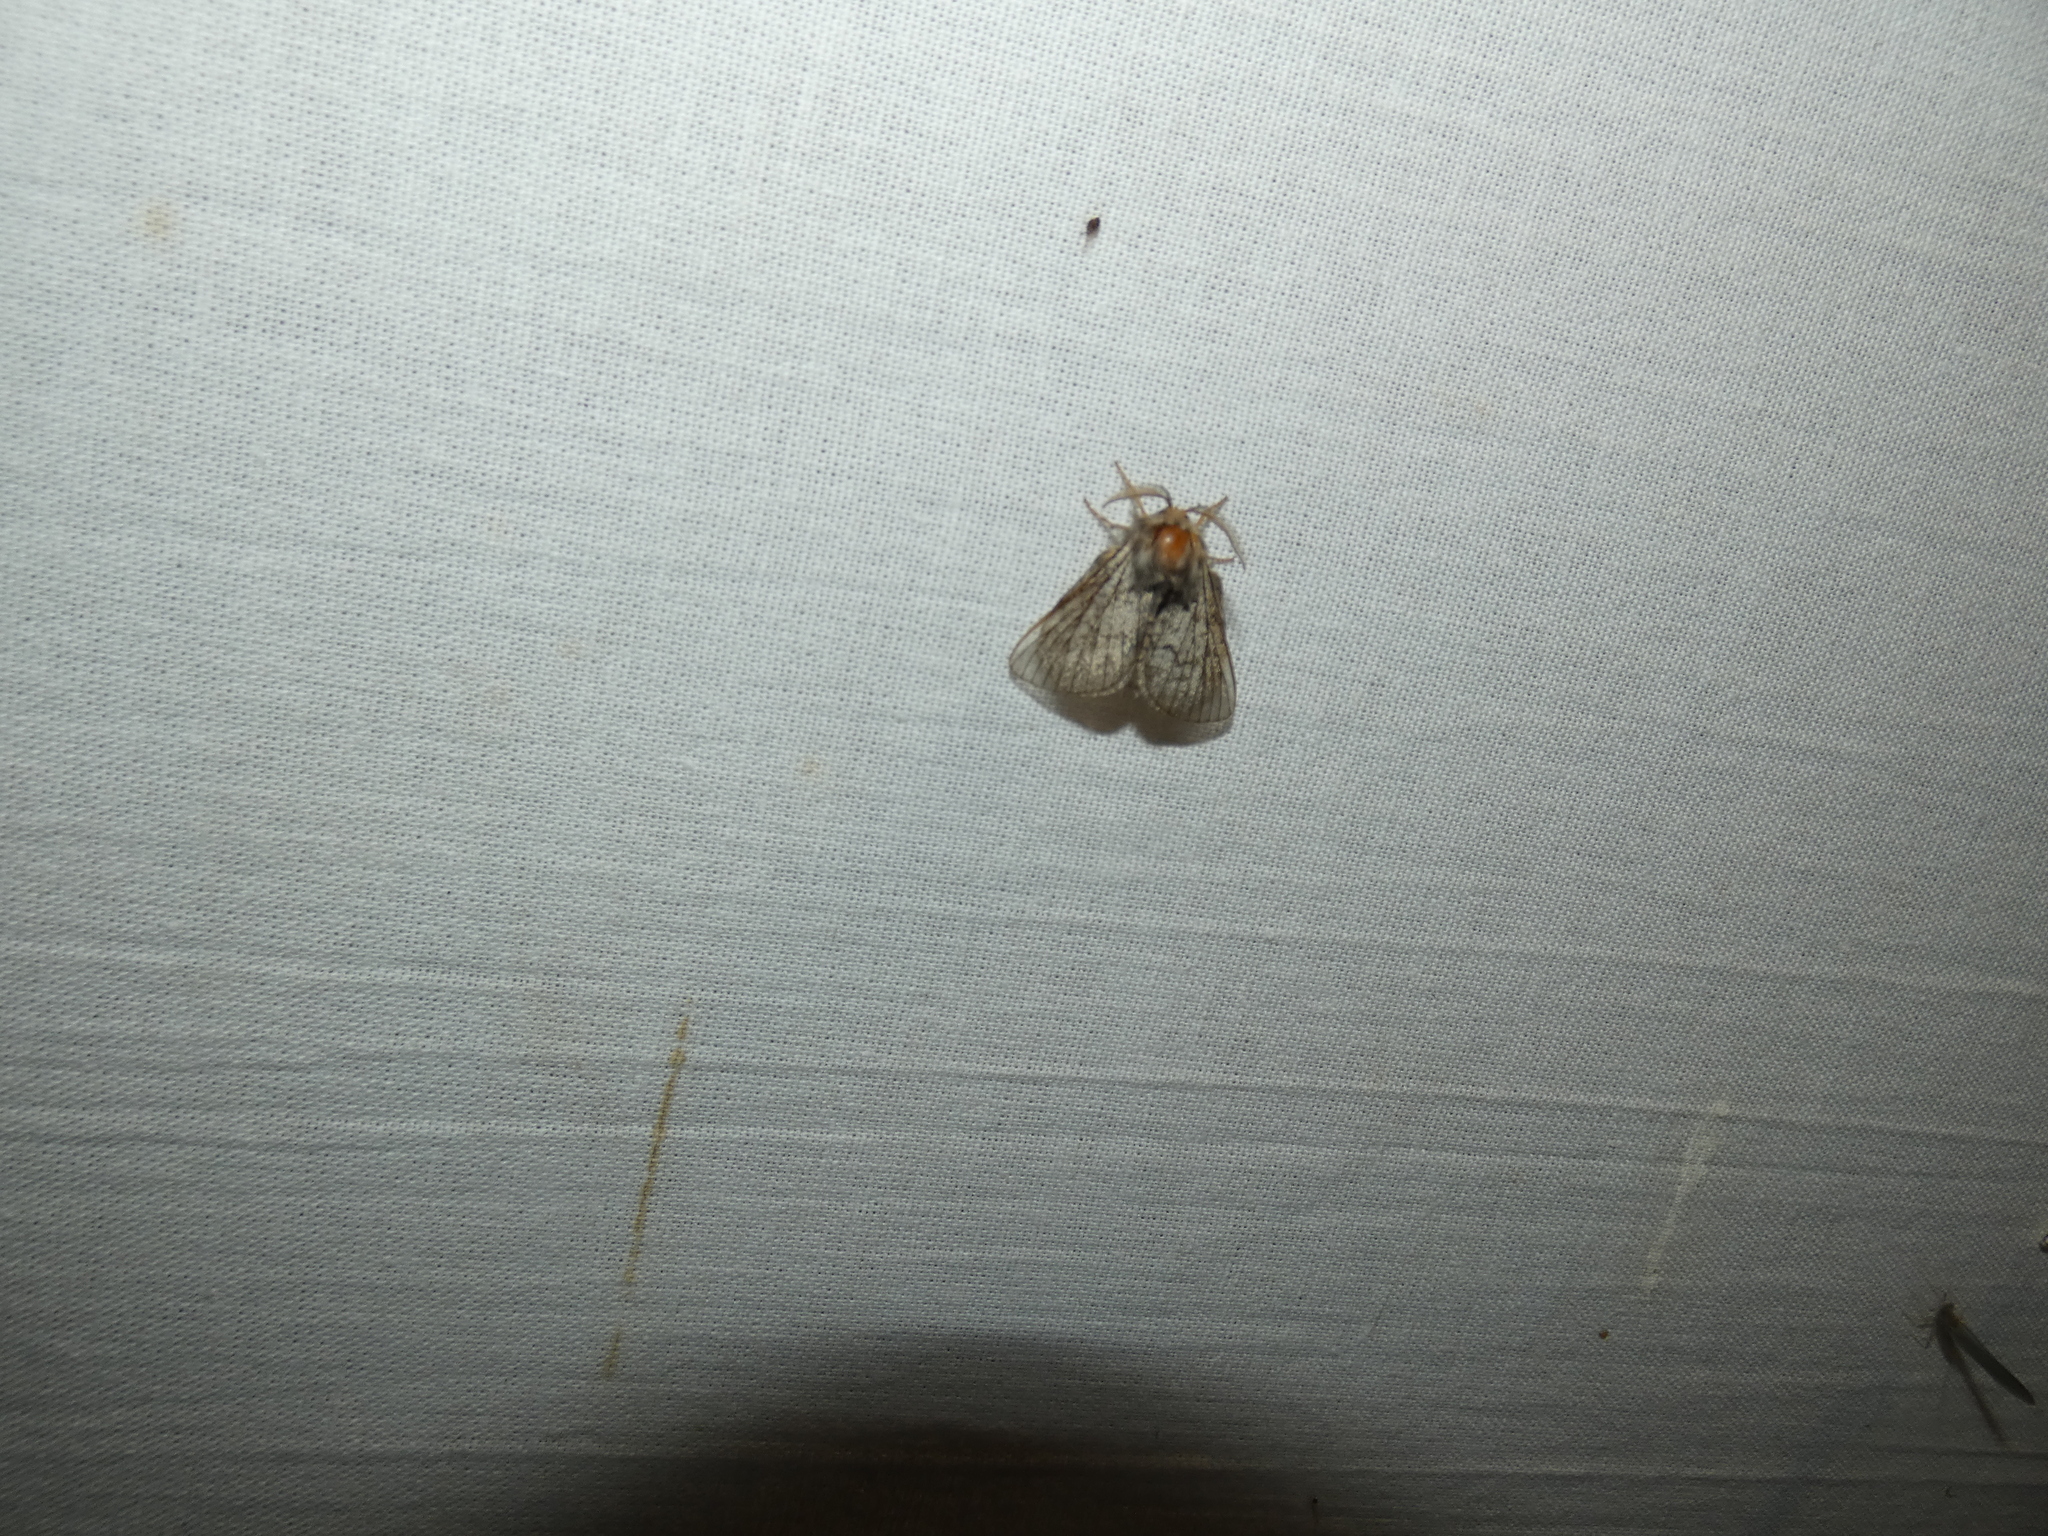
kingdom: Animalia
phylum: Arthropoda
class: Insecta
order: Lepidoptera
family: Lasiocampidae
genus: Trichiura
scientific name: Trichiura crataegi
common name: Pale eggar
